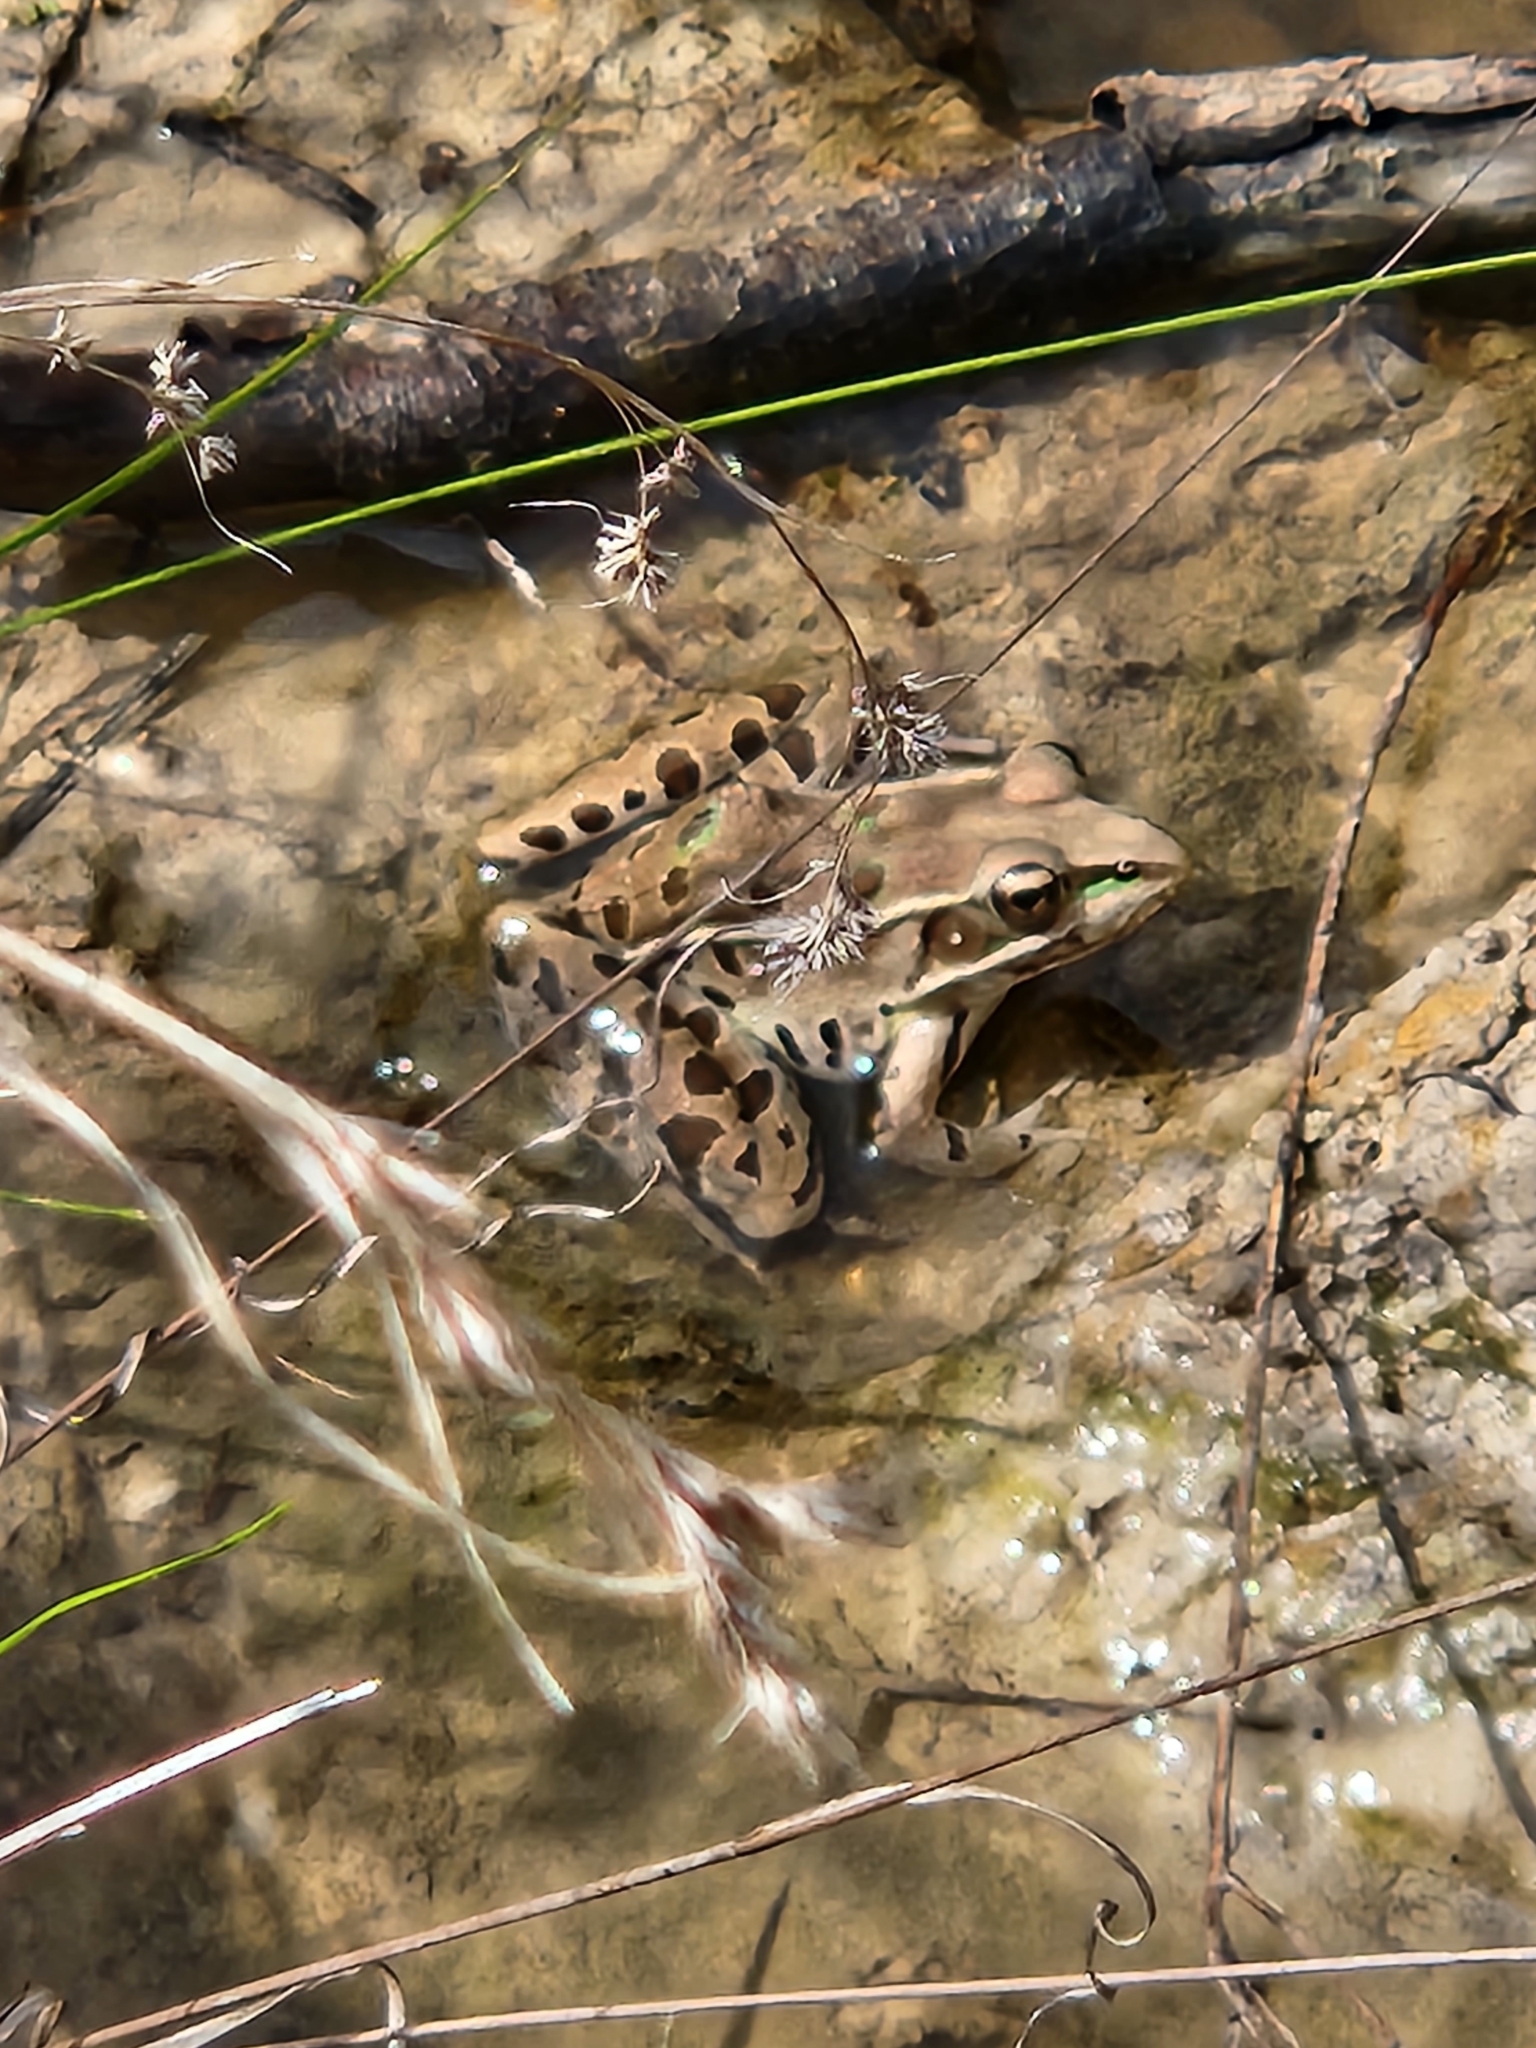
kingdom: Animalia
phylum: Chordata
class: Amphibia
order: Anura
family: Ranidae
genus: Lithobates
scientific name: Lithobates sphenocephalus
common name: Southern leopard frog
